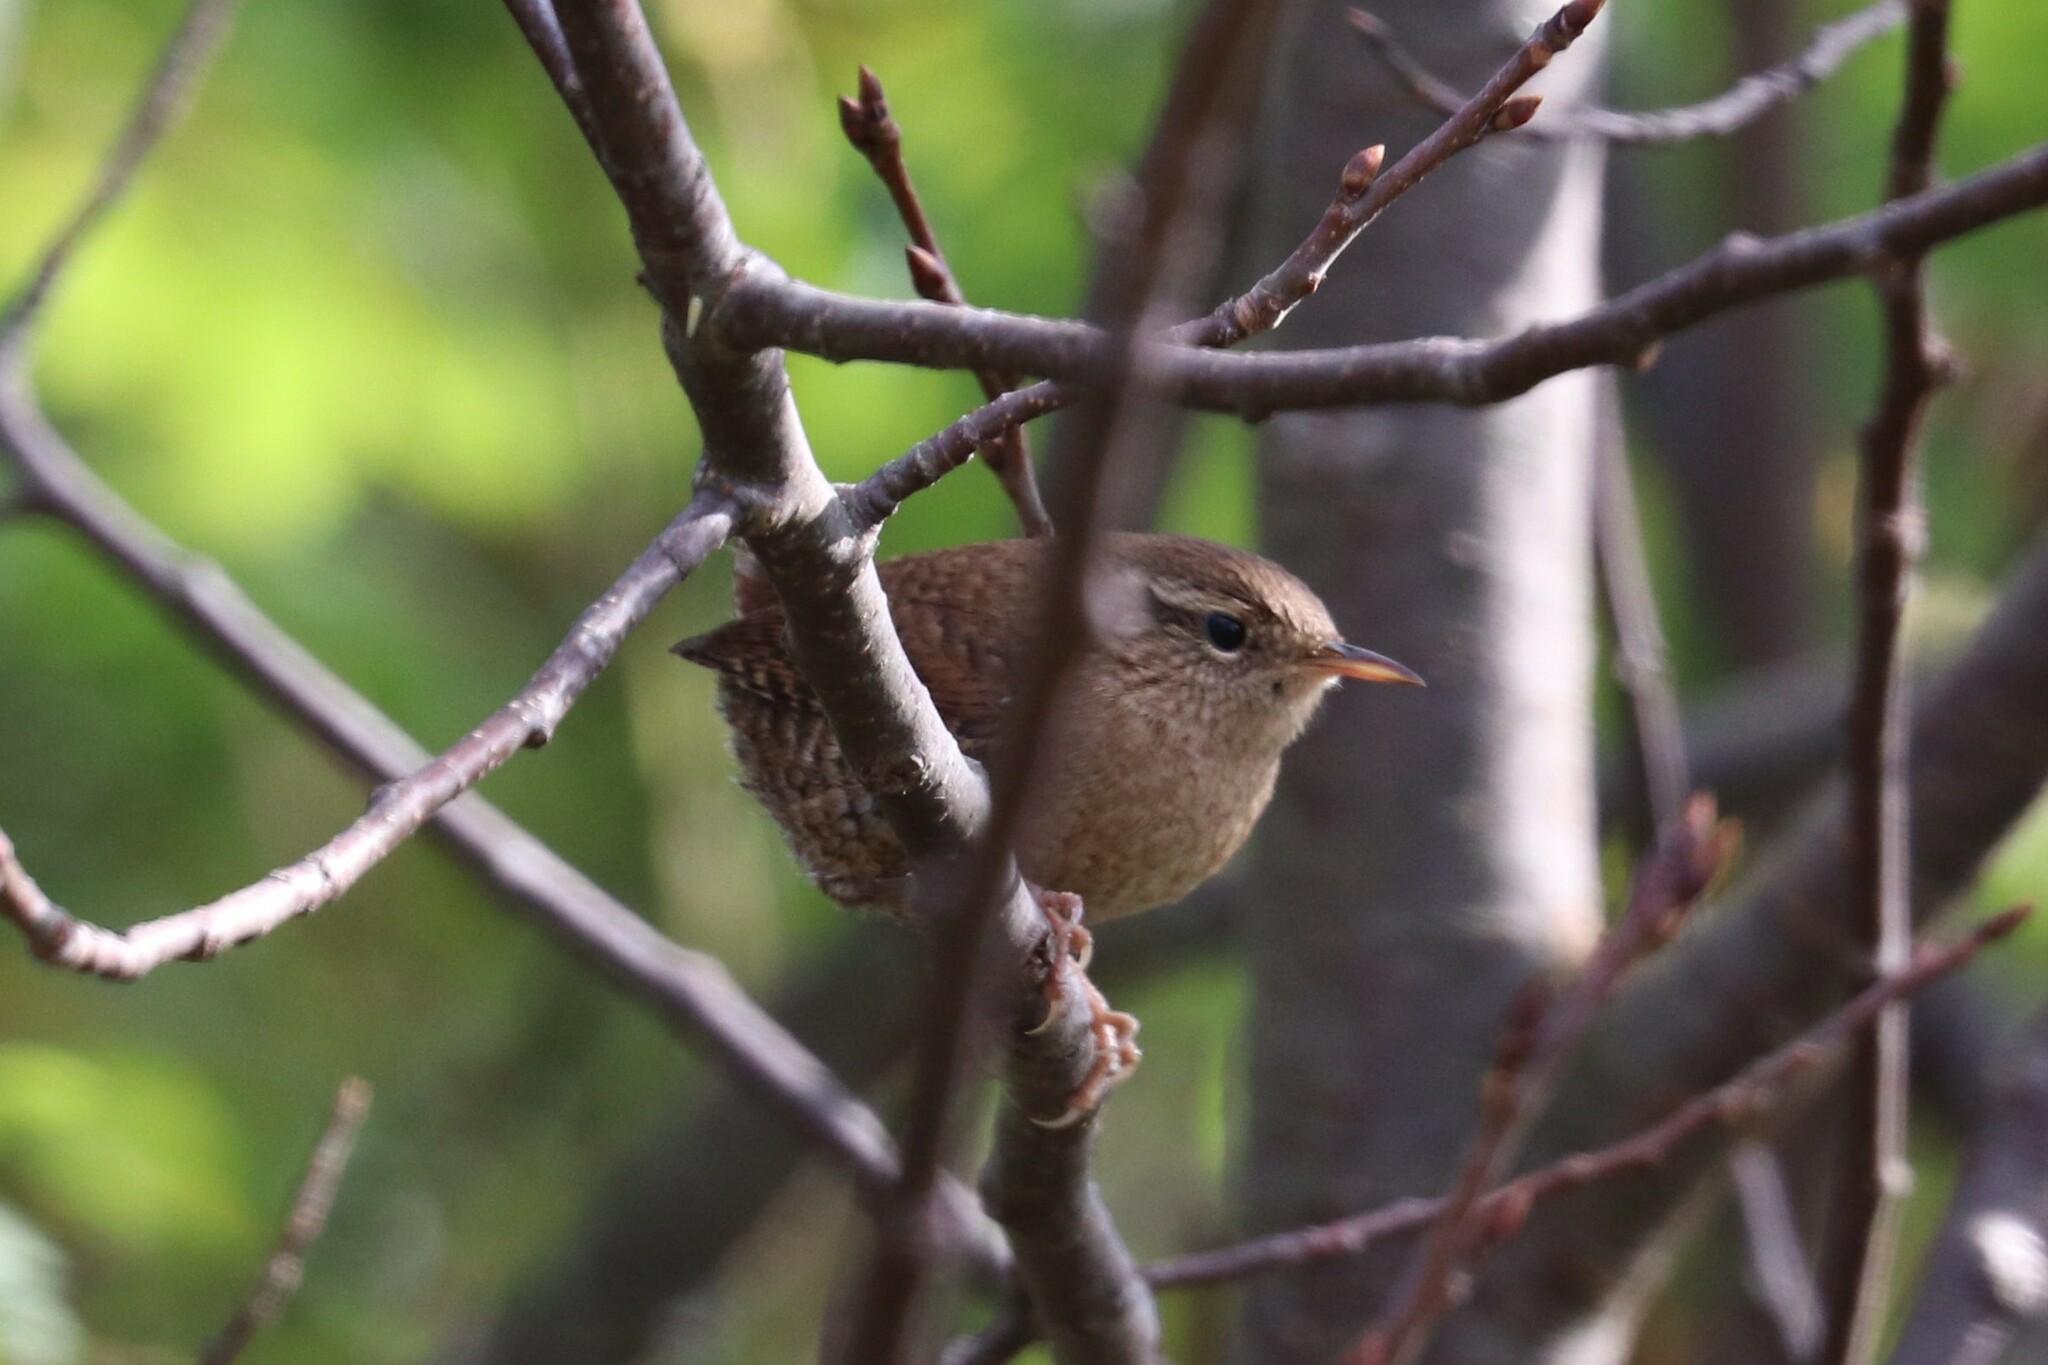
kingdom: Animalia
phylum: Chordata
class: Aves
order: Passeriformes
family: Troglodytidae
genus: Troglodytes
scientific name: Troglodytes troglodytes
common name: Eurasian wren
